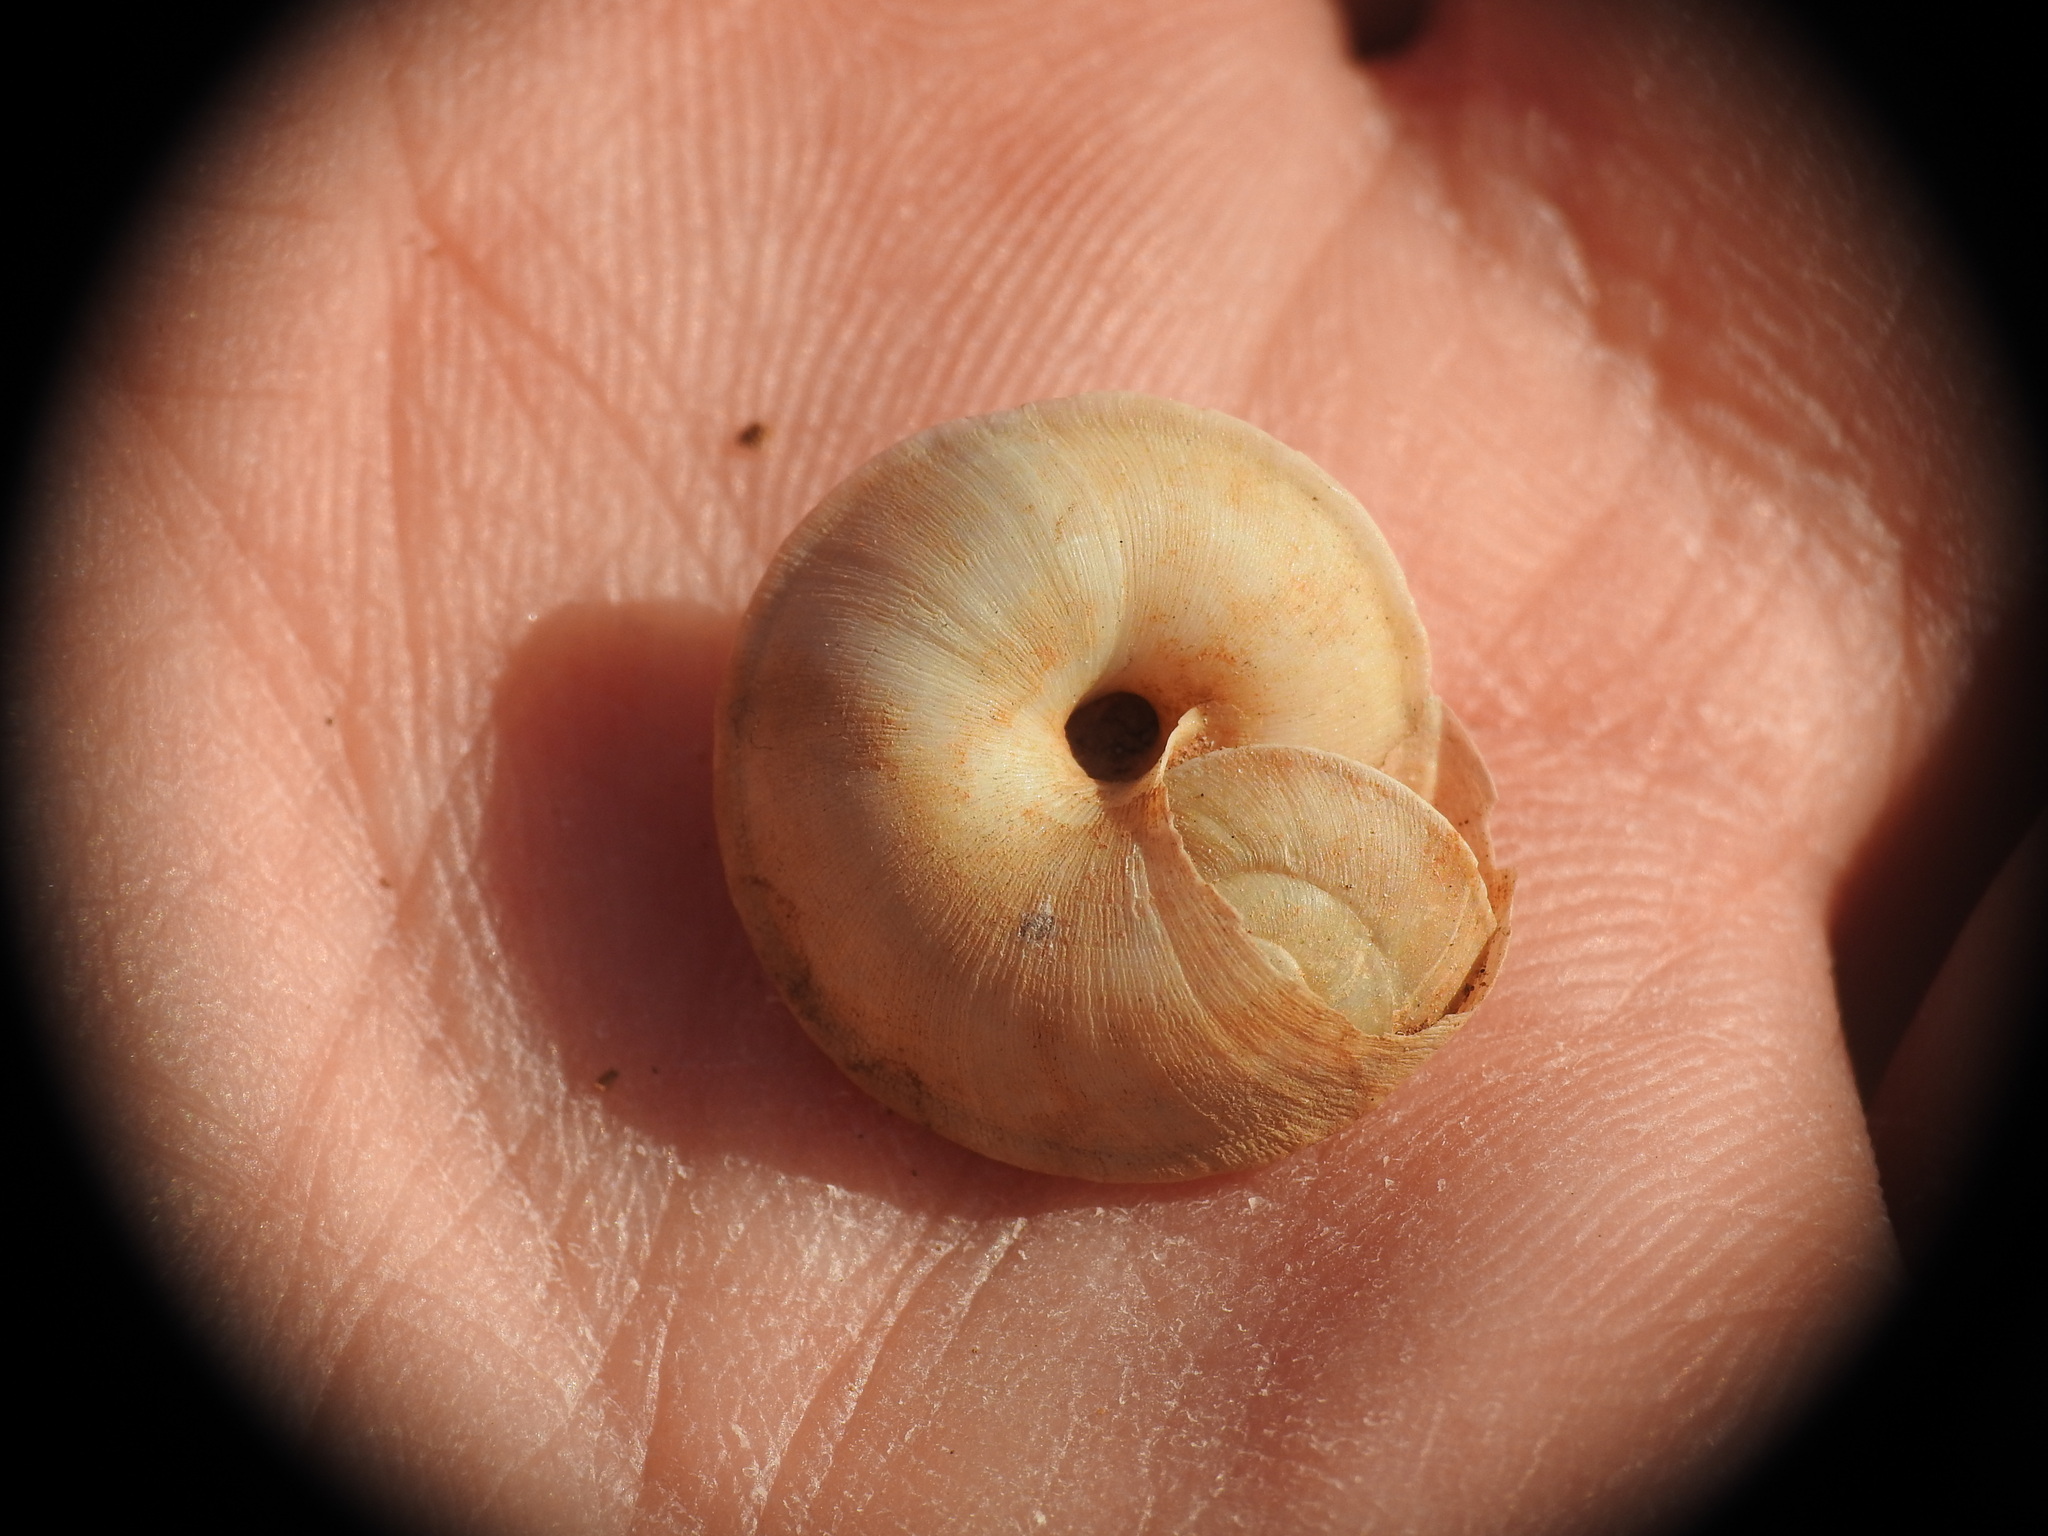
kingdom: Animalia
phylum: Mollusca
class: Gastropoda
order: Stylommatophora
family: Oxychilidae
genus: Oxychilus
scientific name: Oxychilus aegopinoides
